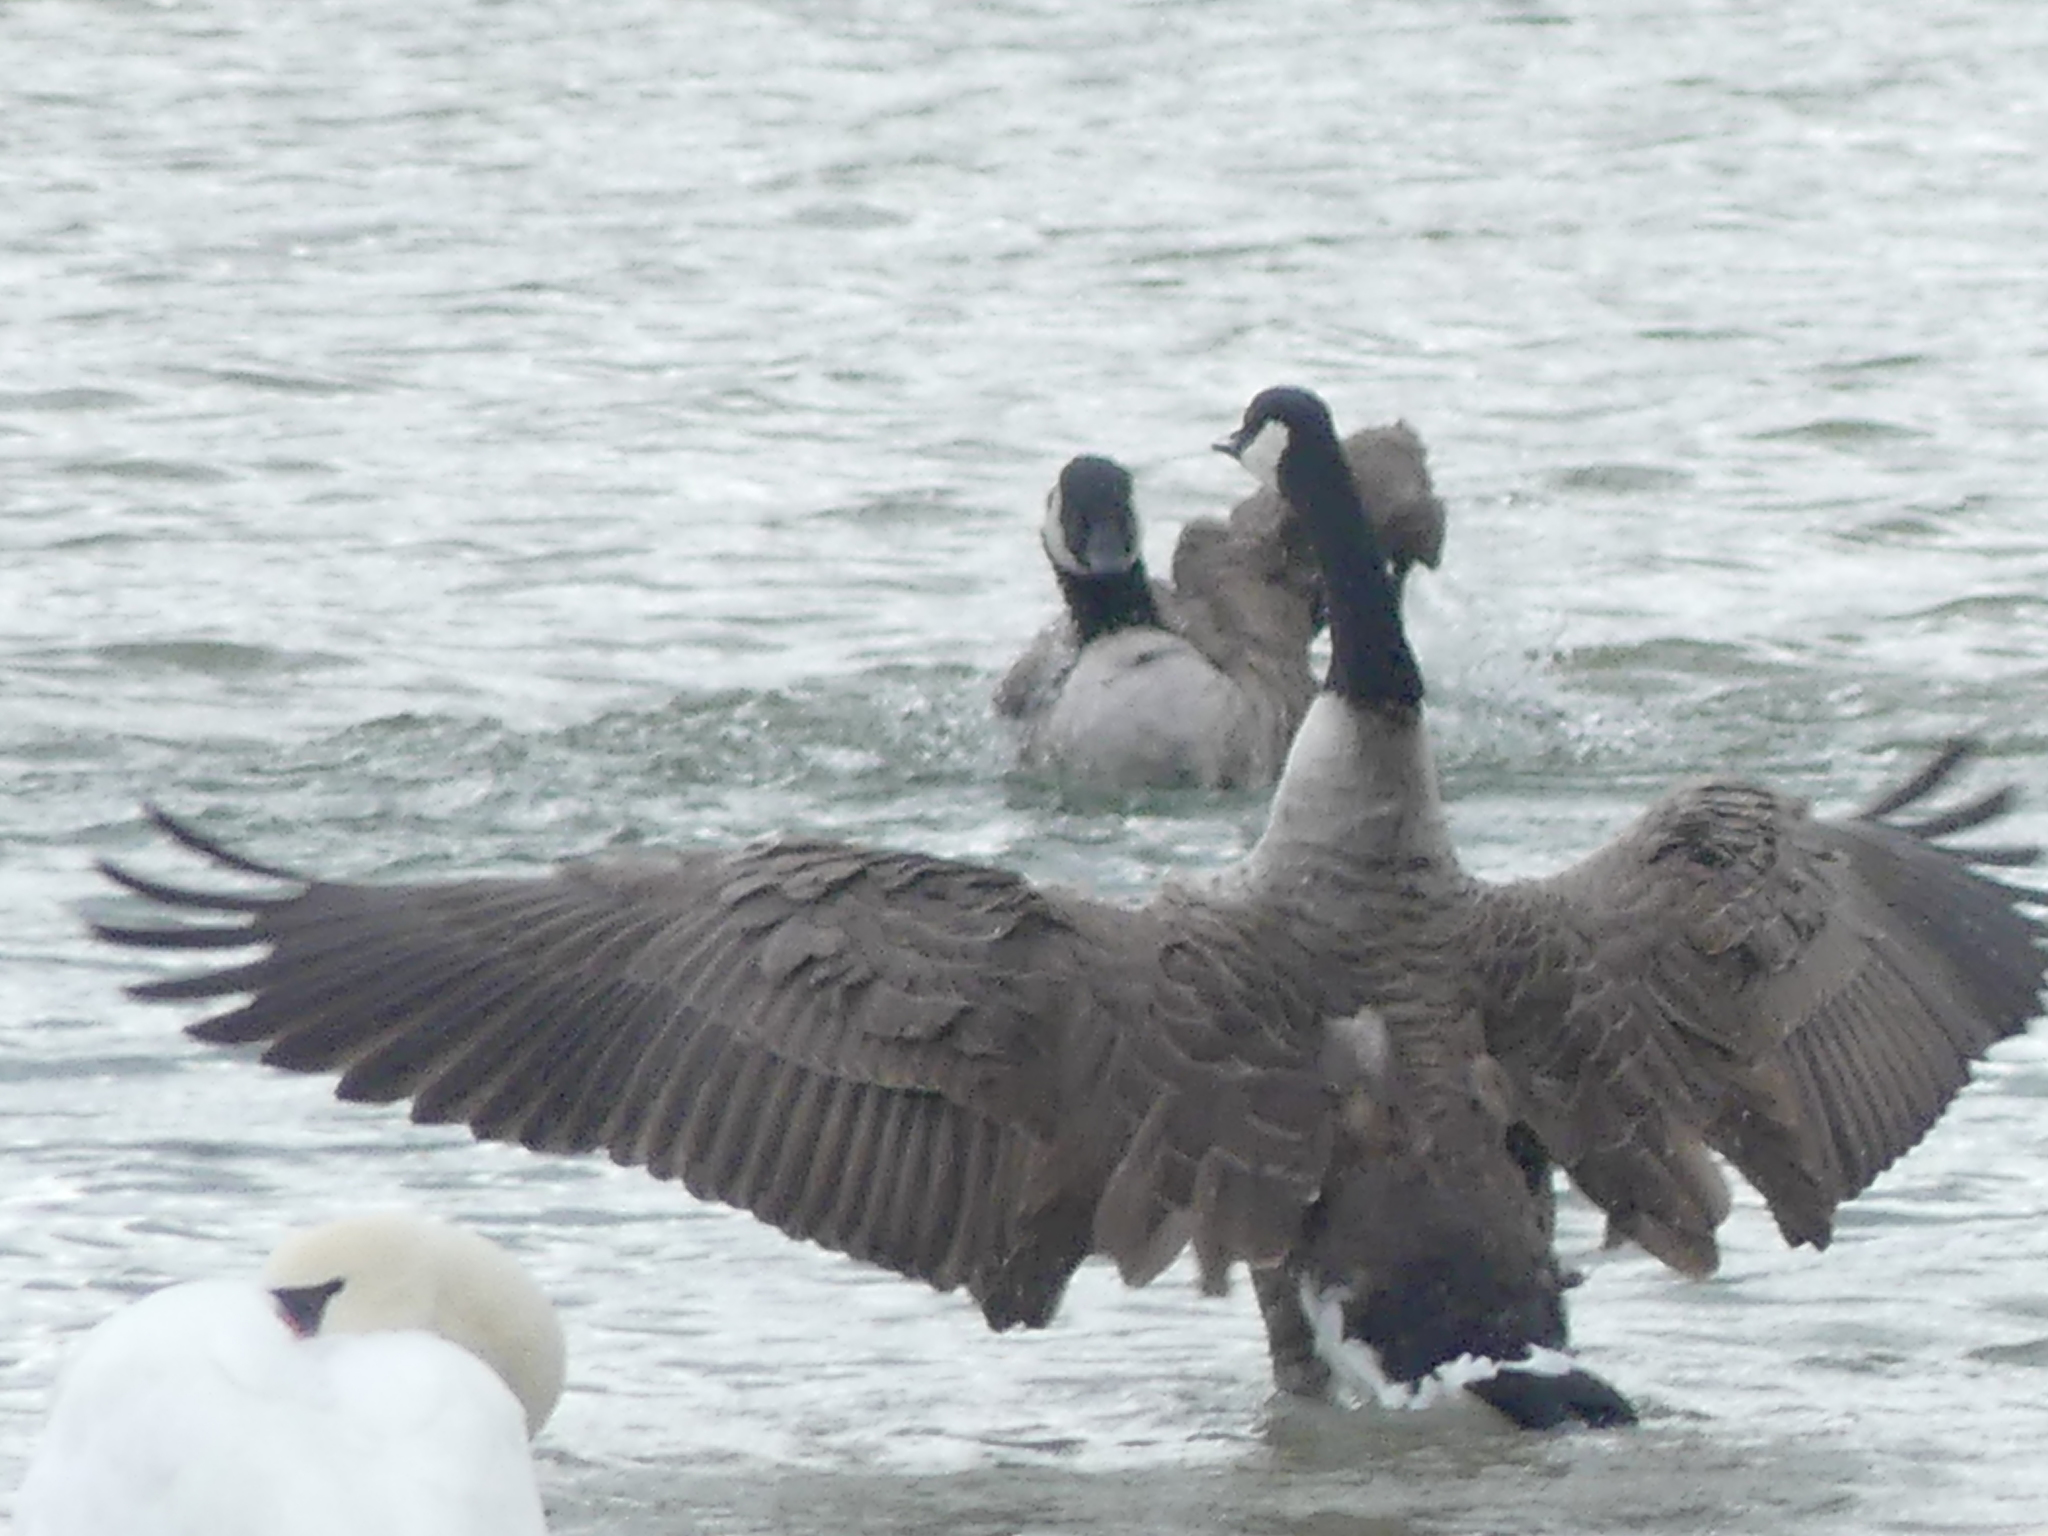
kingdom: Animalia
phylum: Chordata
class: Aves
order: Anseriformes
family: Anatidae
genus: Branta
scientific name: Branta canadensis
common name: Canada goose
